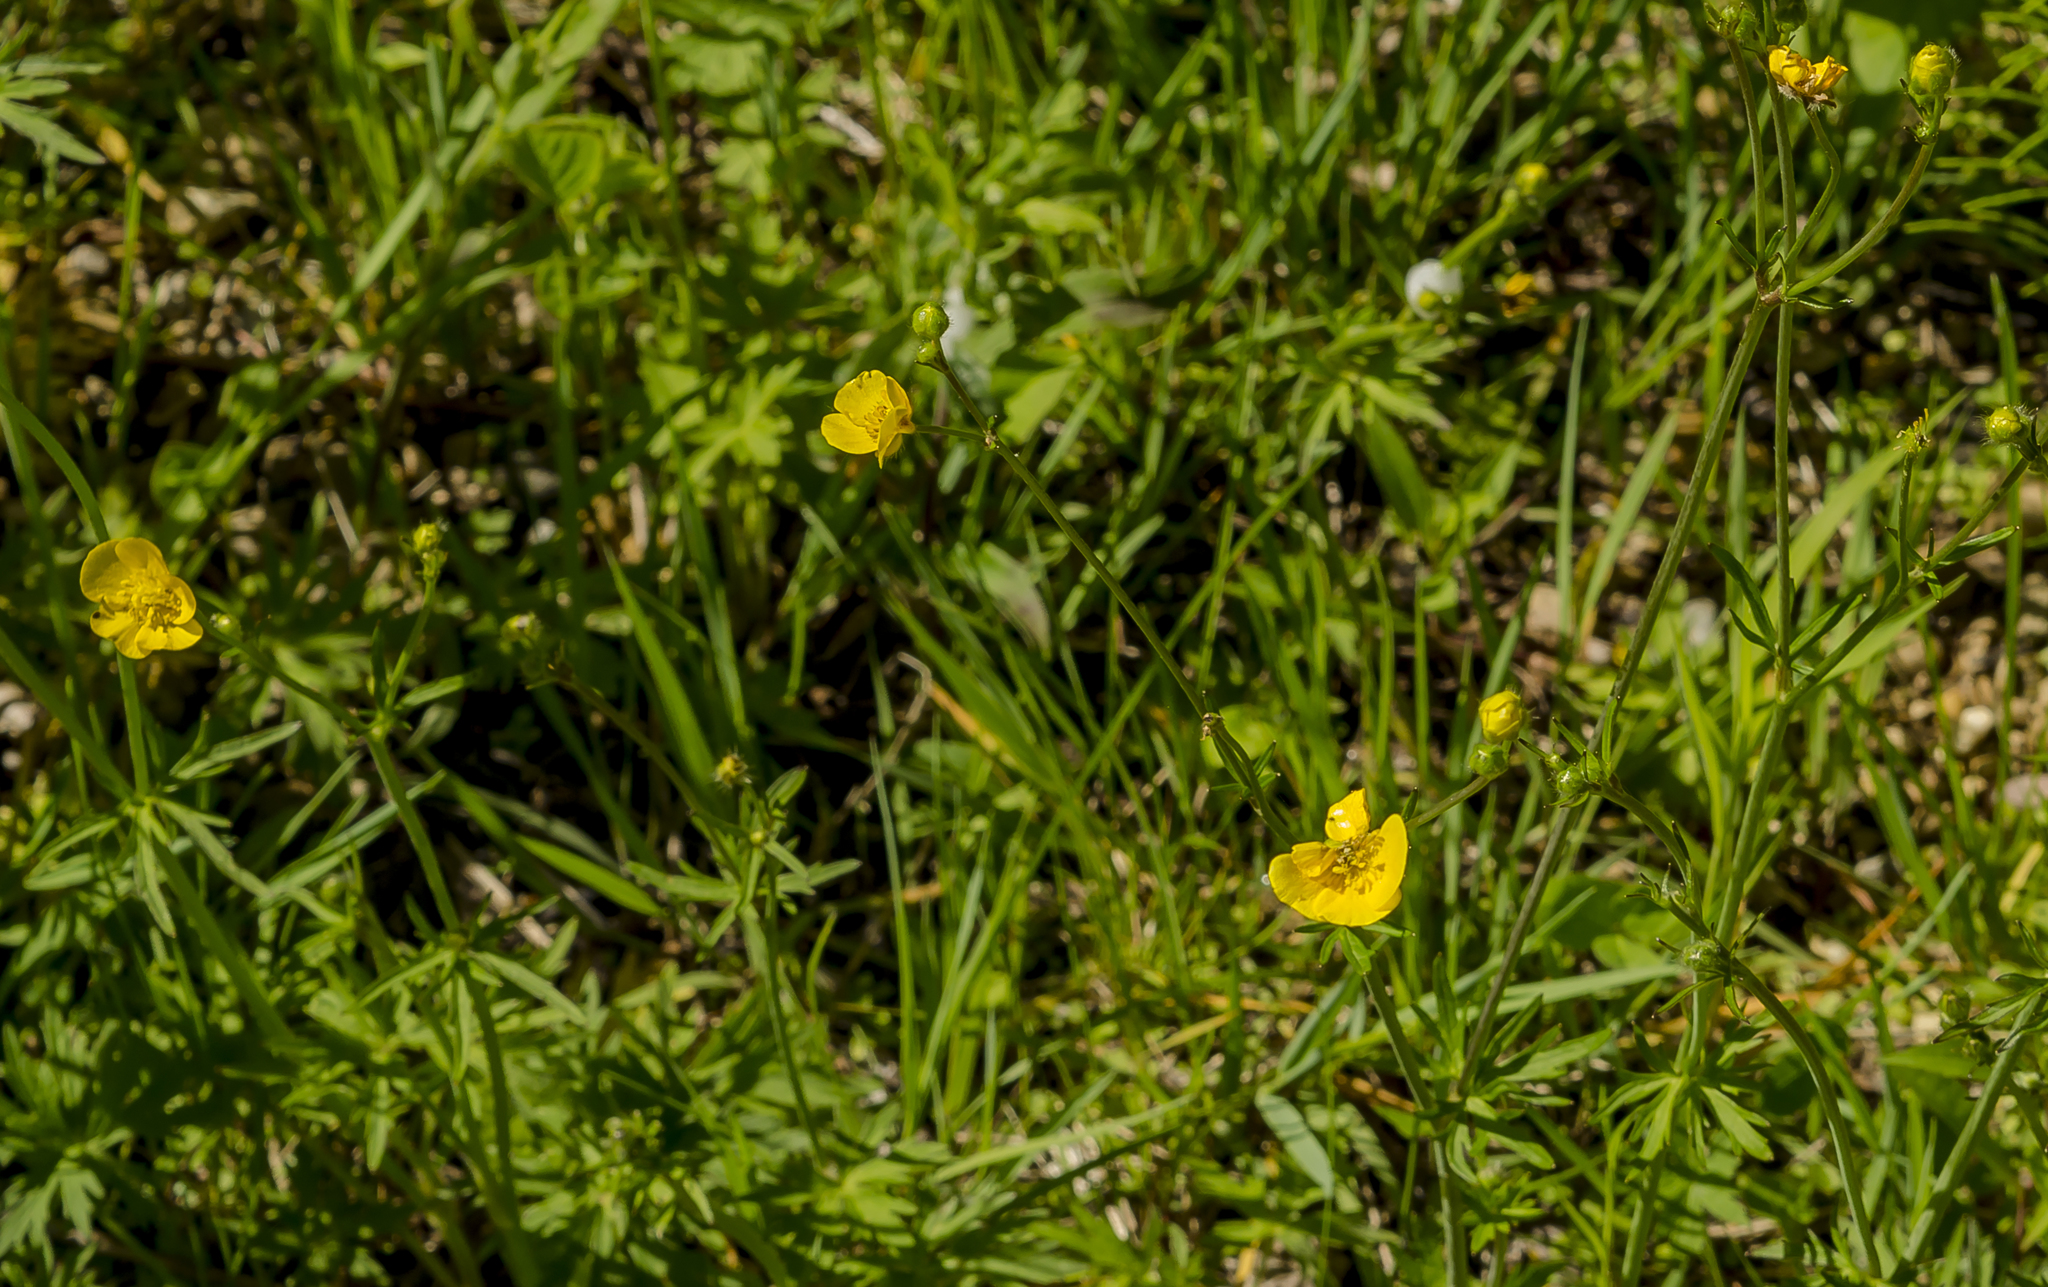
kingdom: Plantae
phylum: Tracheophyta
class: Magnoliopsida
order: Ranunculales
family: Ranunculaceae
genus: Ranunculus
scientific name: Ranunculus acris
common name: Meadow buttercup
